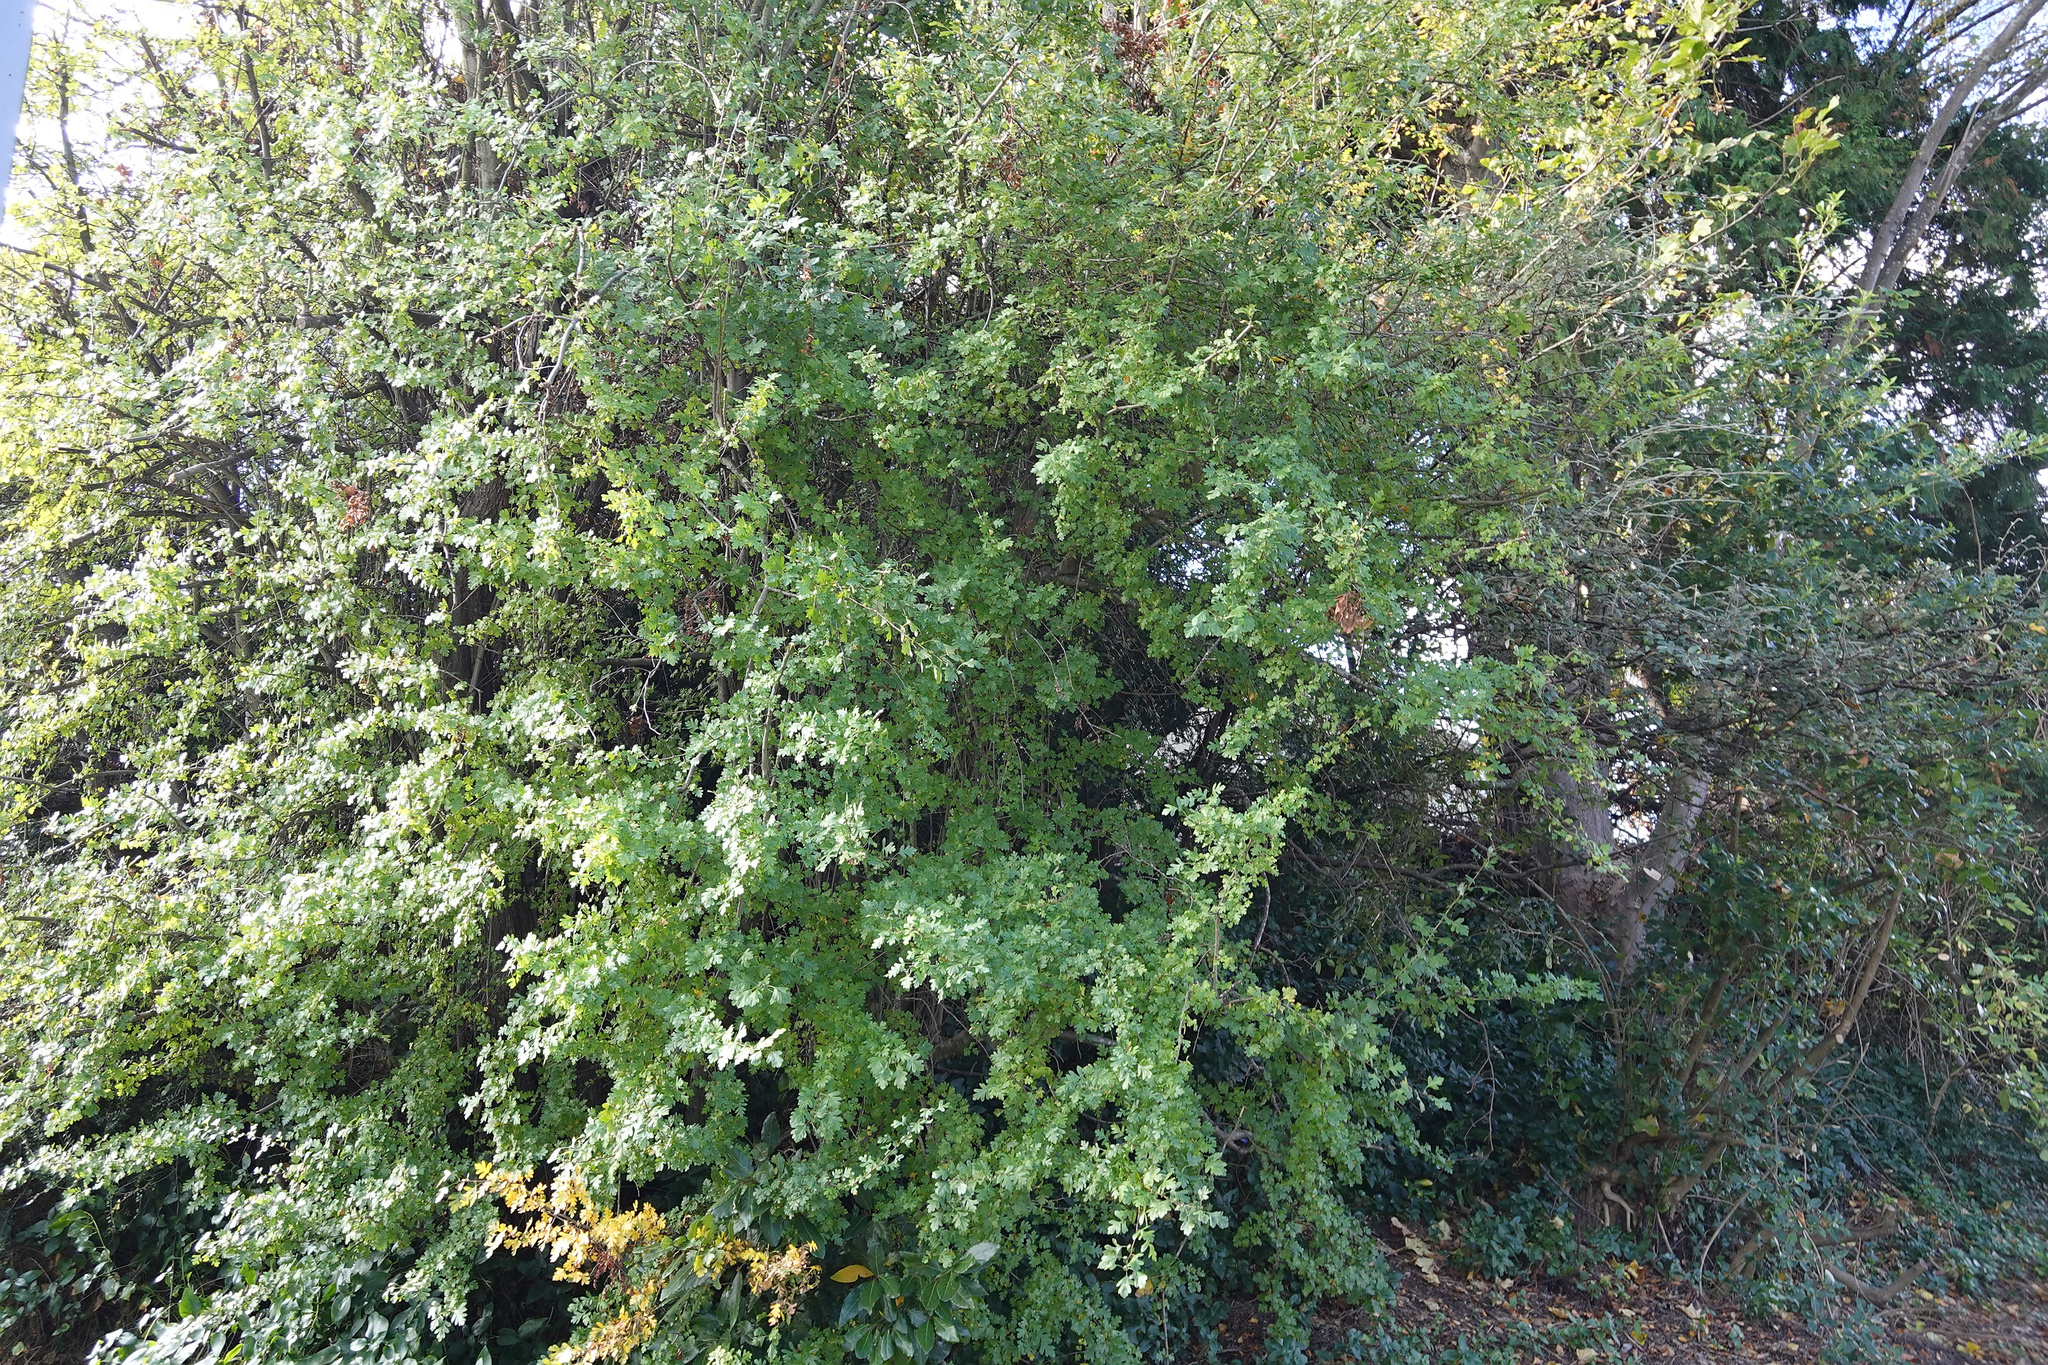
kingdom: Plantae
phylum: Tracheophyta
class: Magnoliopsida
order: Rosales
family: Rosaceae
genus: Crataegus
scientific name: Crataegus monogyna
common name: Hawthorn
